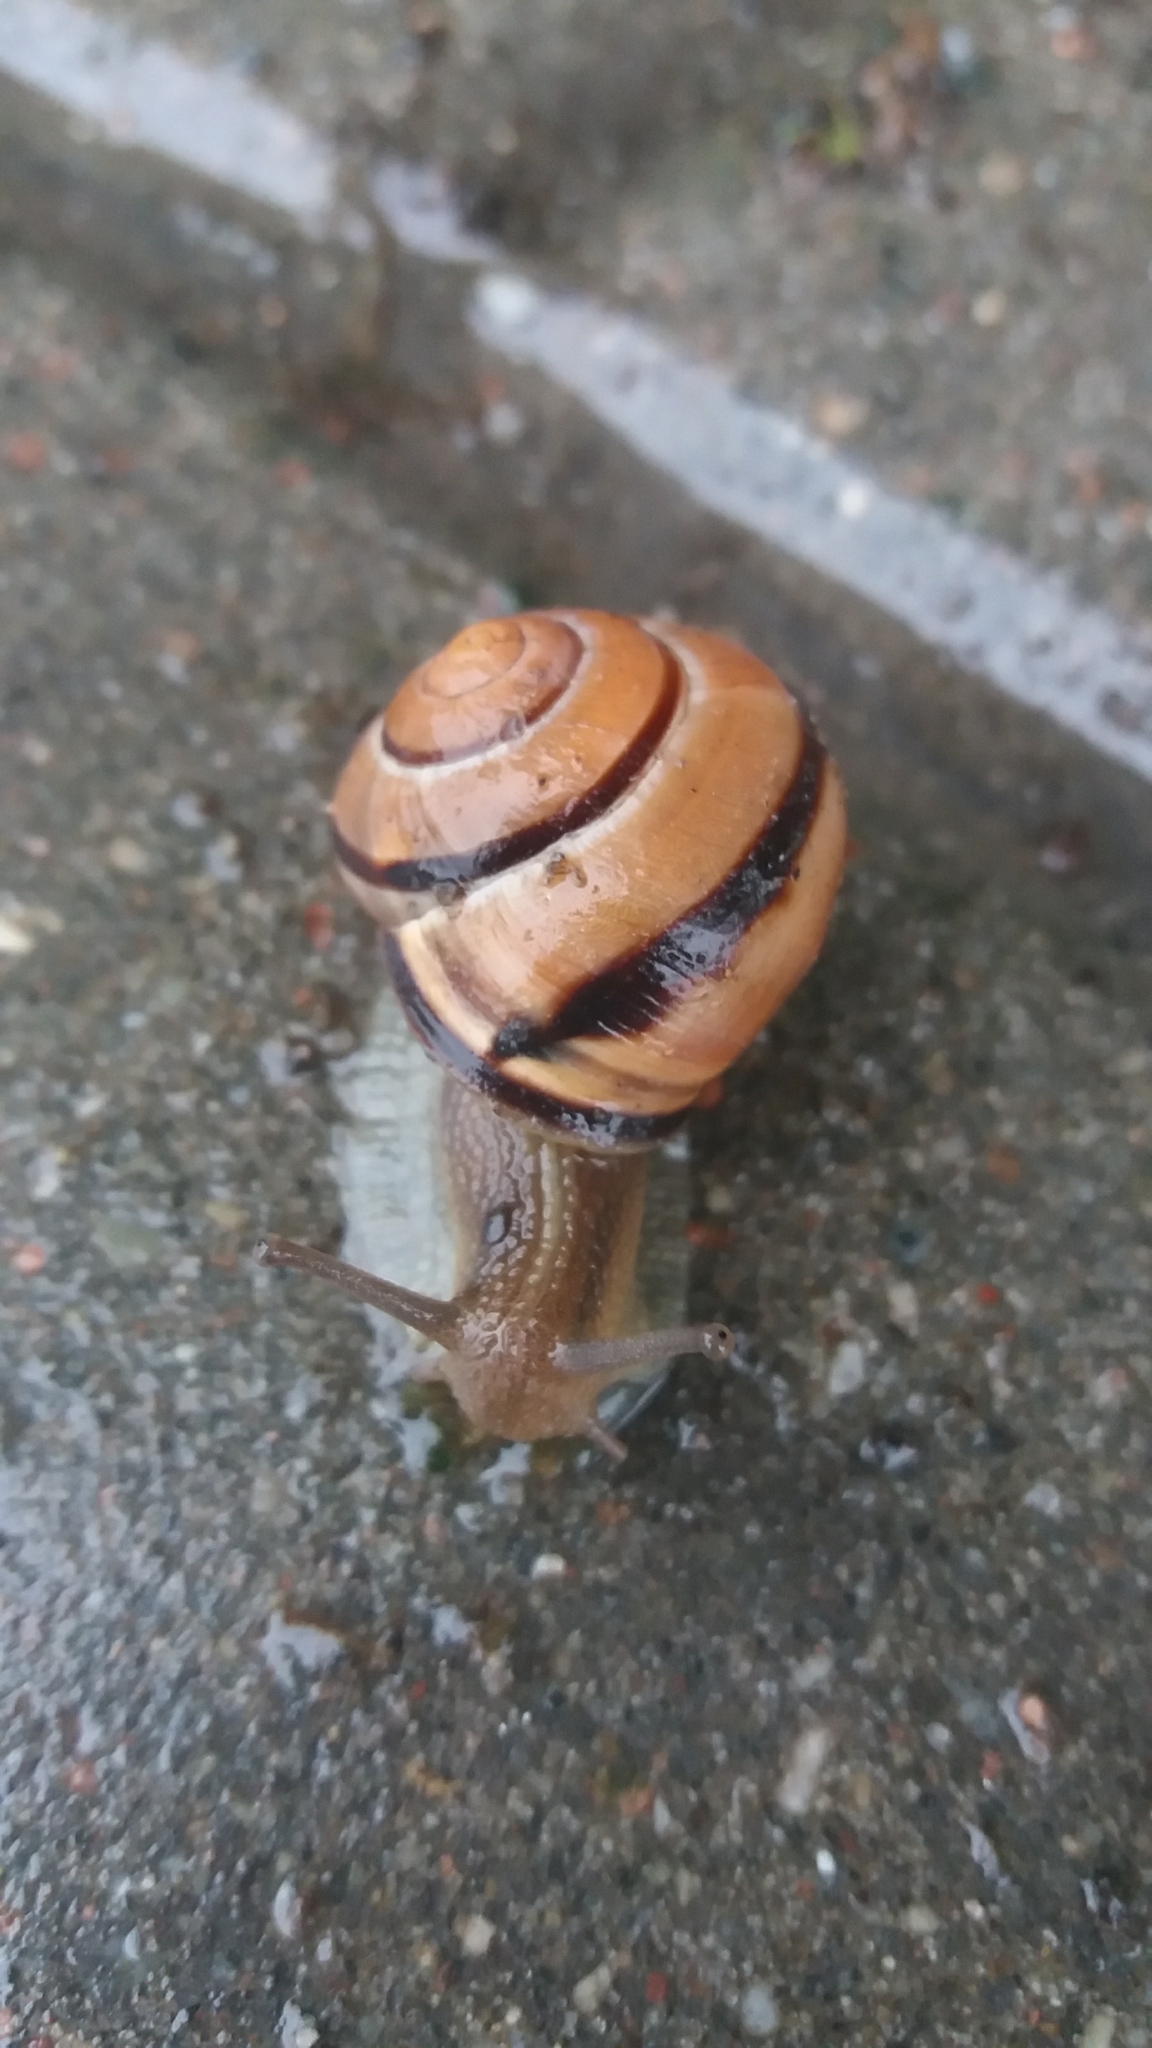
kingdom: Animalia
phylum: Mollusca
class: Gastropoda
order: Stylommatophora
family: Helicidae
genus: Cepaea
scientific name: Cepaea nemoralis
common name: Grovesnail
